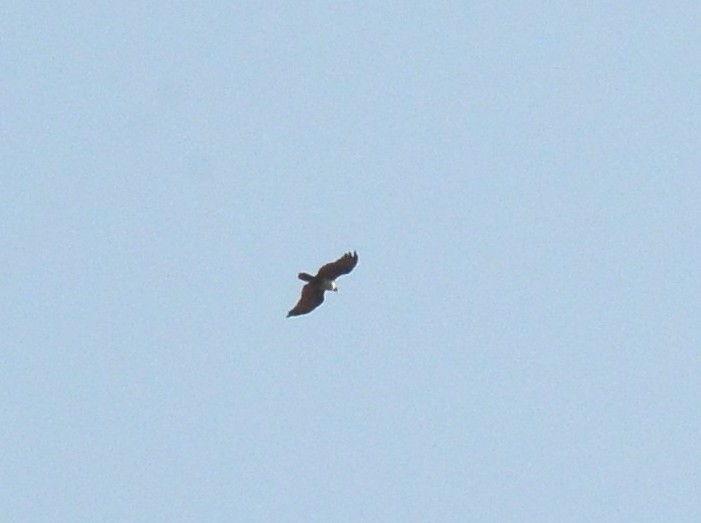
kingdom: Animalia
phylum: Chordata
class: Aves
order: Accipitriformes
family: Accipitridae
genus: Haliastur
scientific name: Haliastur indus
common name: Brahminy kite
